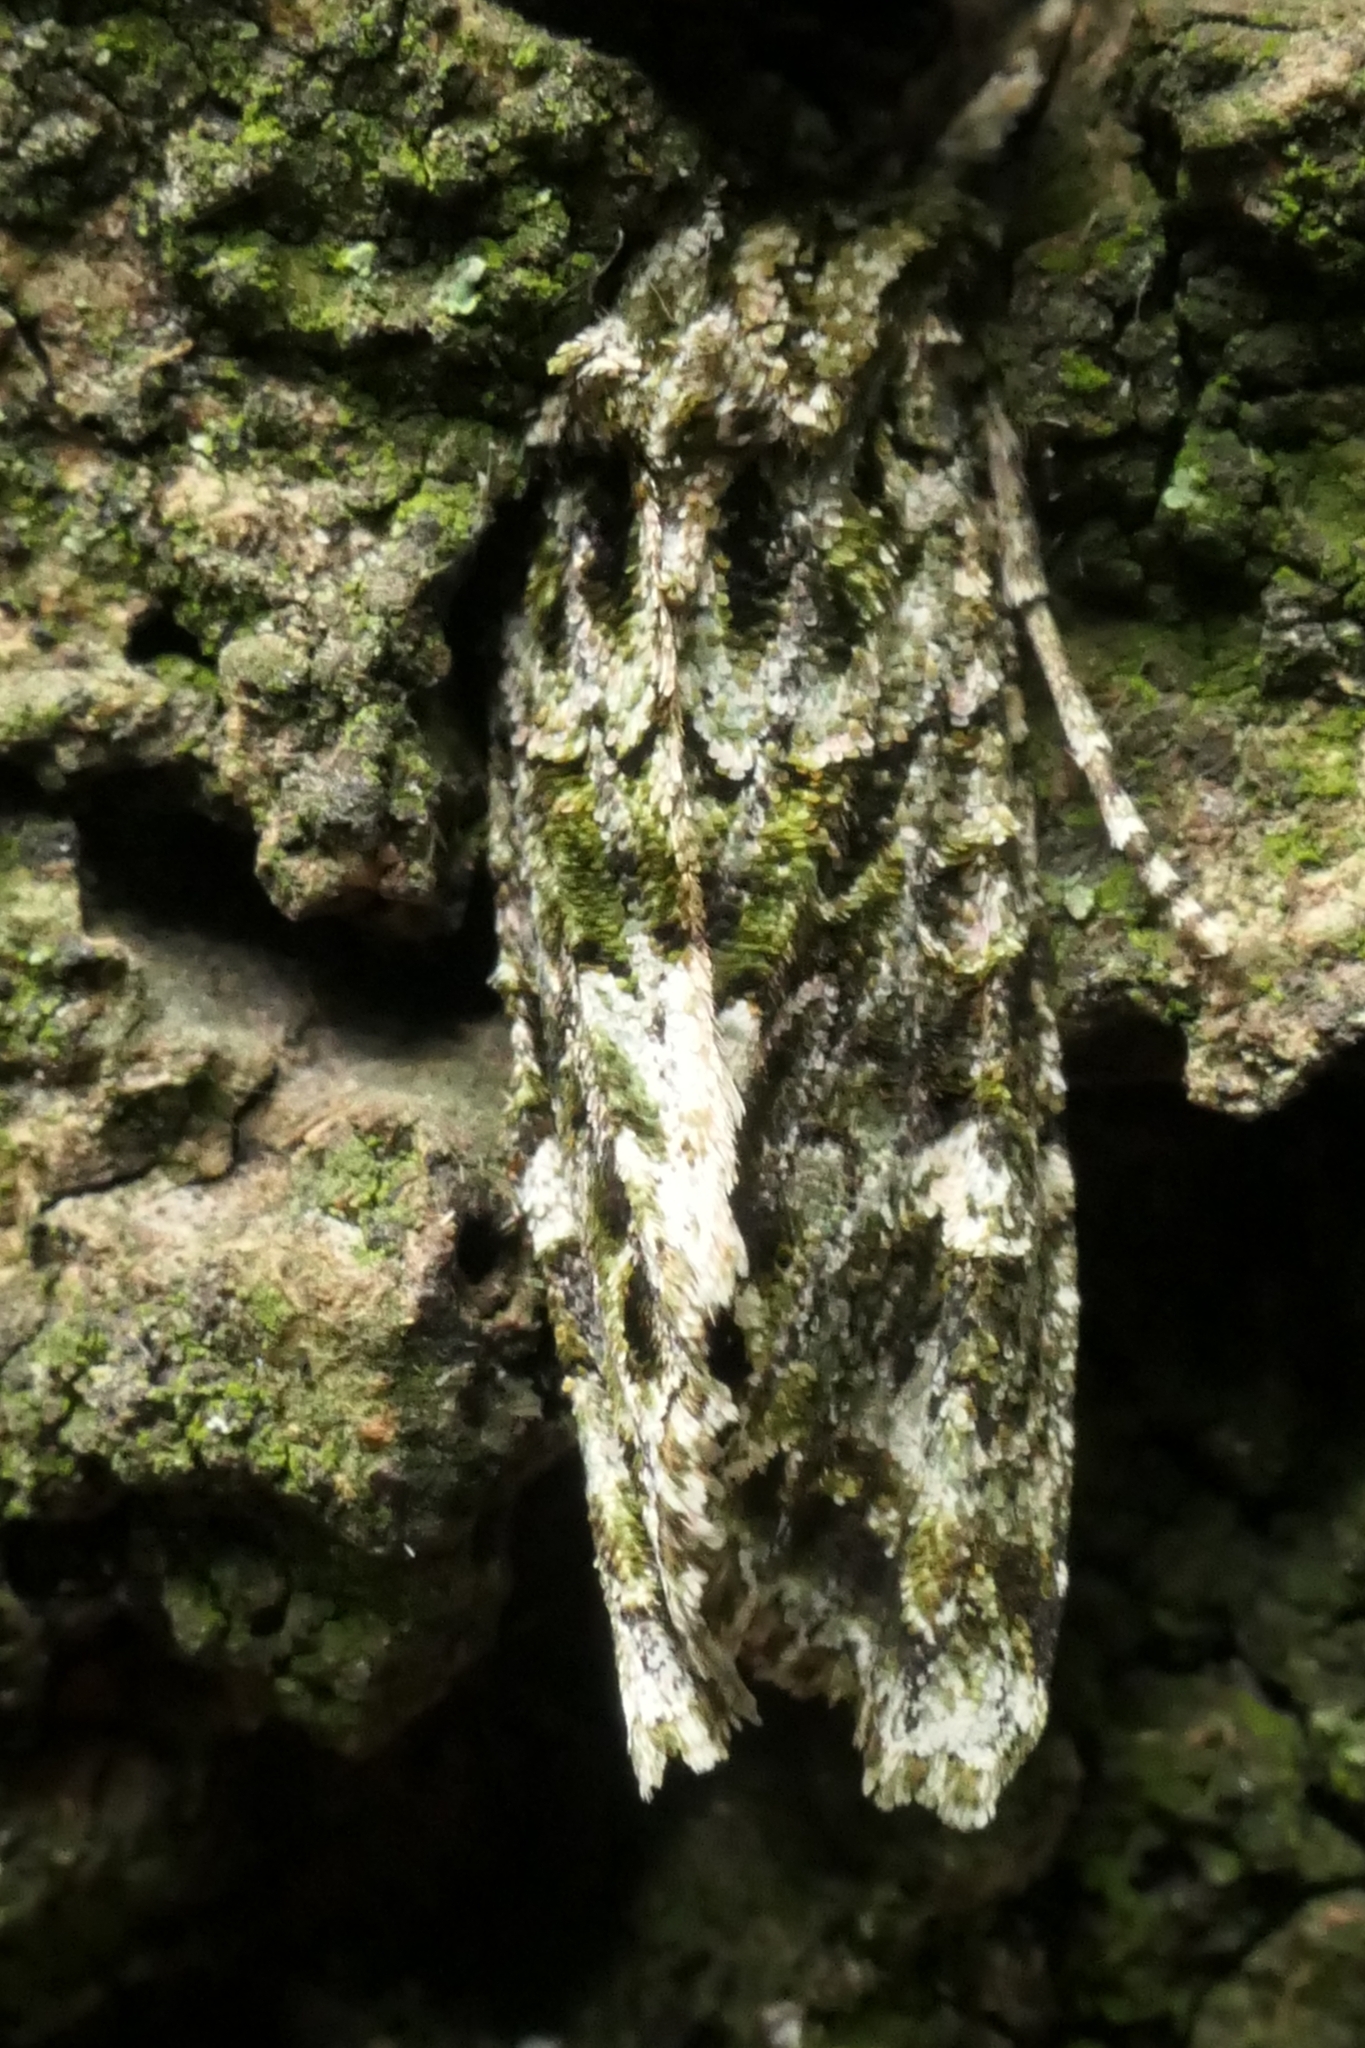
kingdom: Animalia
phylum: Arthropoda
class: Insecta
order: Lepidoptera
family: Noctuidae
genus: Ichneutica
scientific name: Ichneutica
